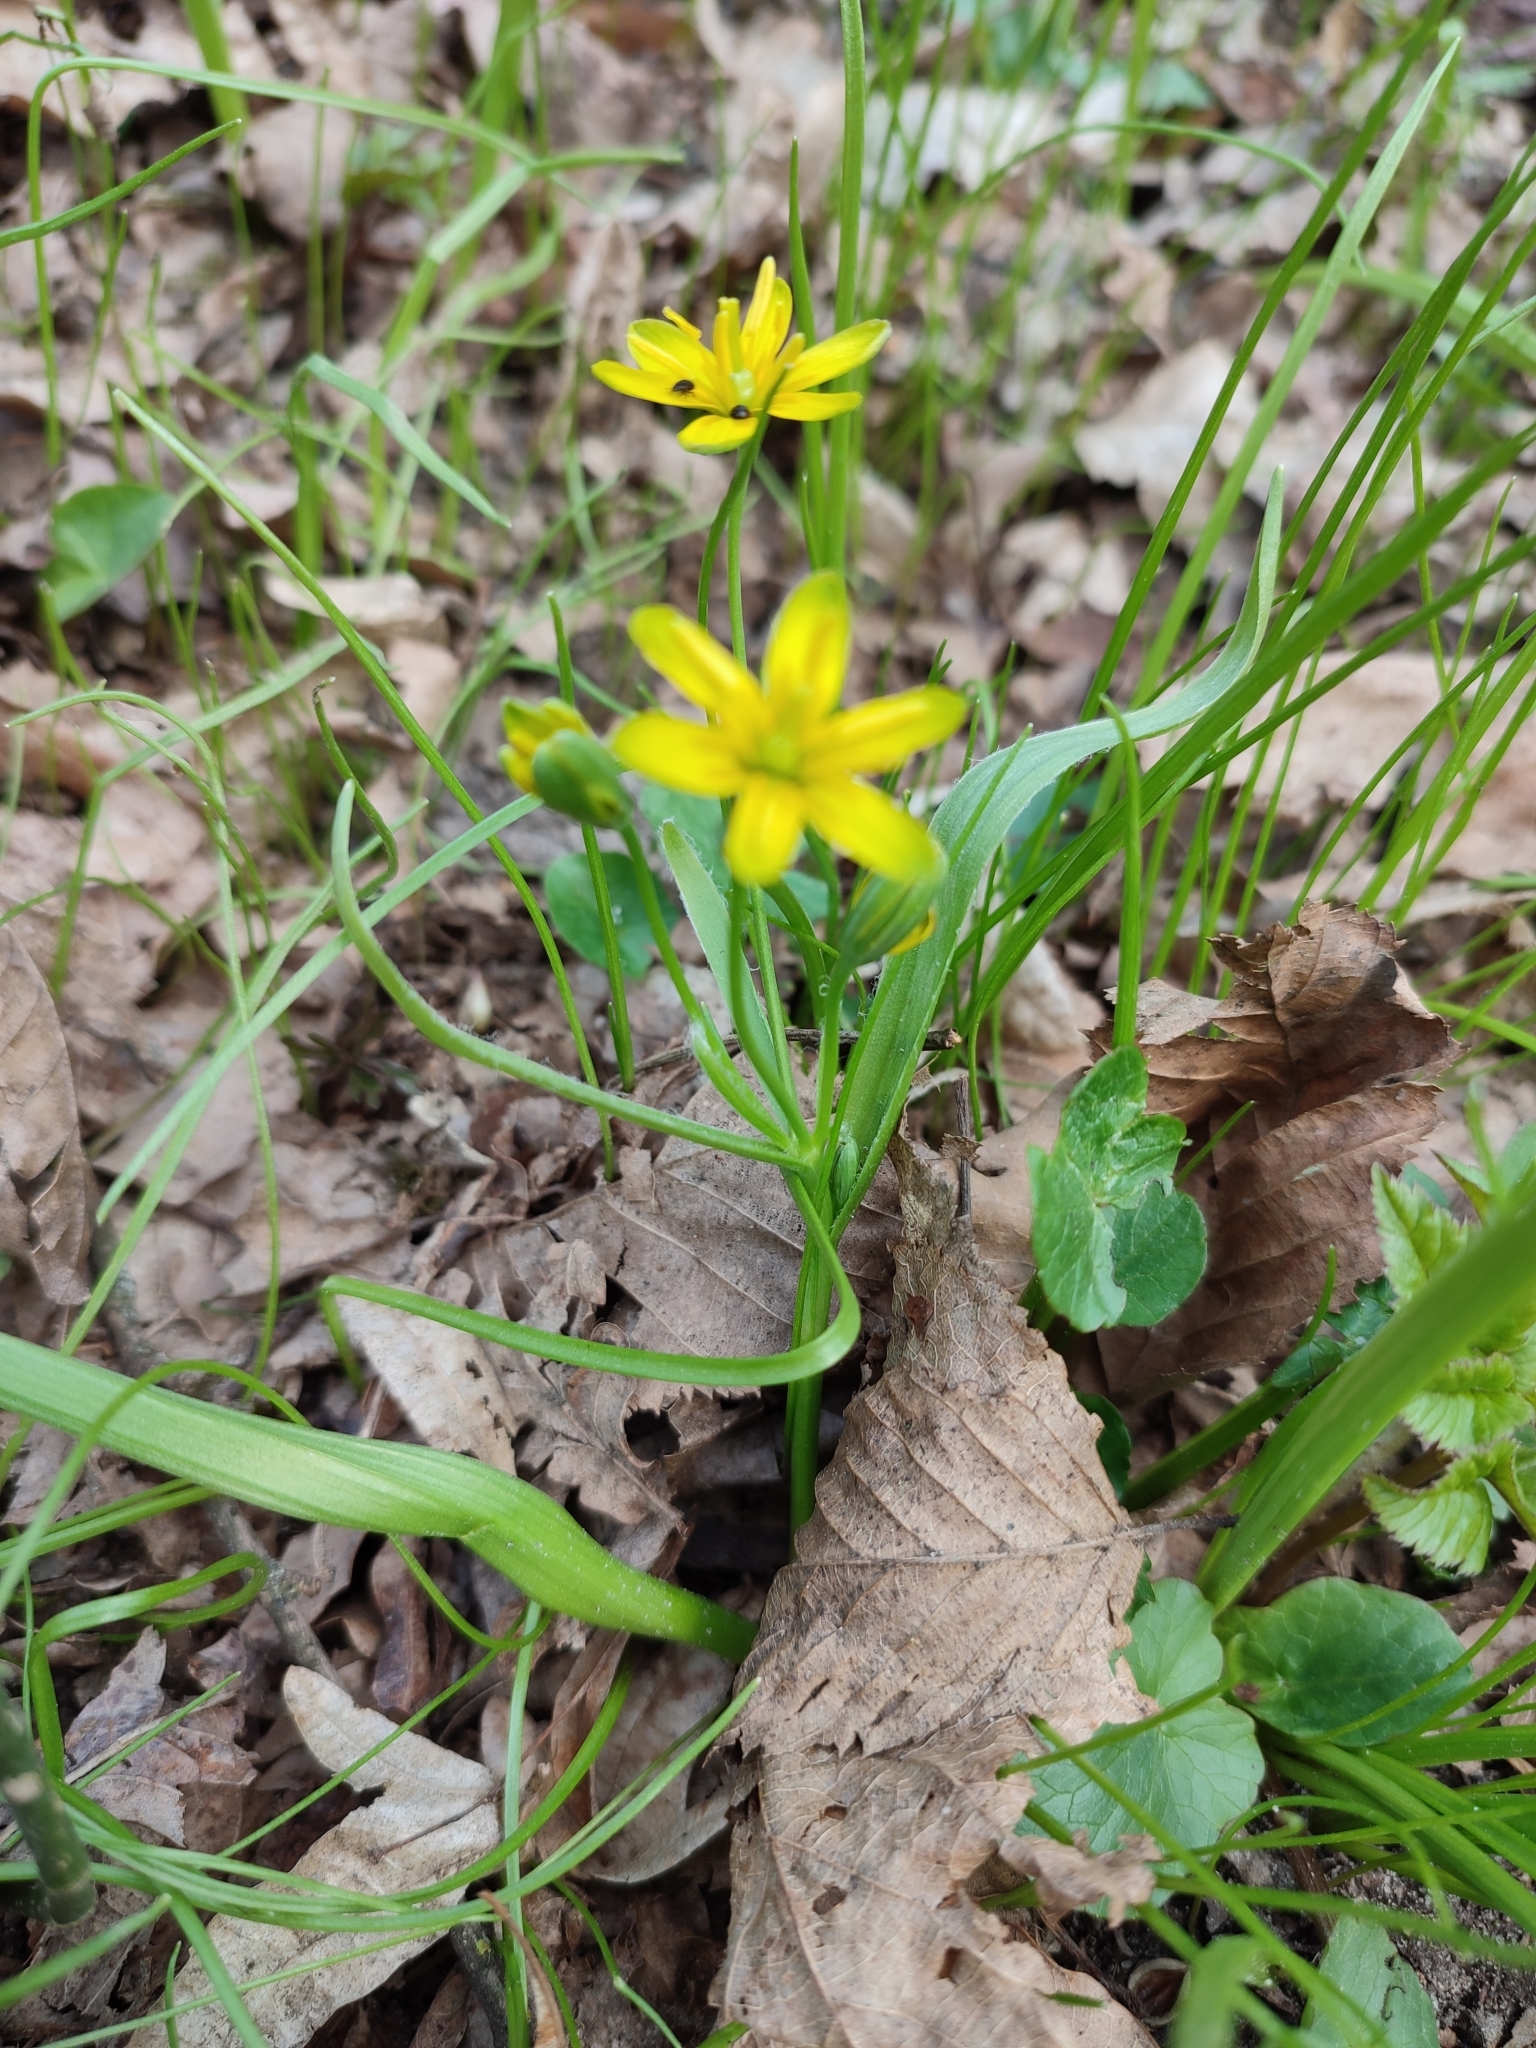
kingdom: Plantae
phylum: Tracheophyta
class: Liliopsida
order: Liliales
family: Liliaceae
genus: Gagea
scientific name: Gagea lutea
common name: Yellow star-of-bethlehem
